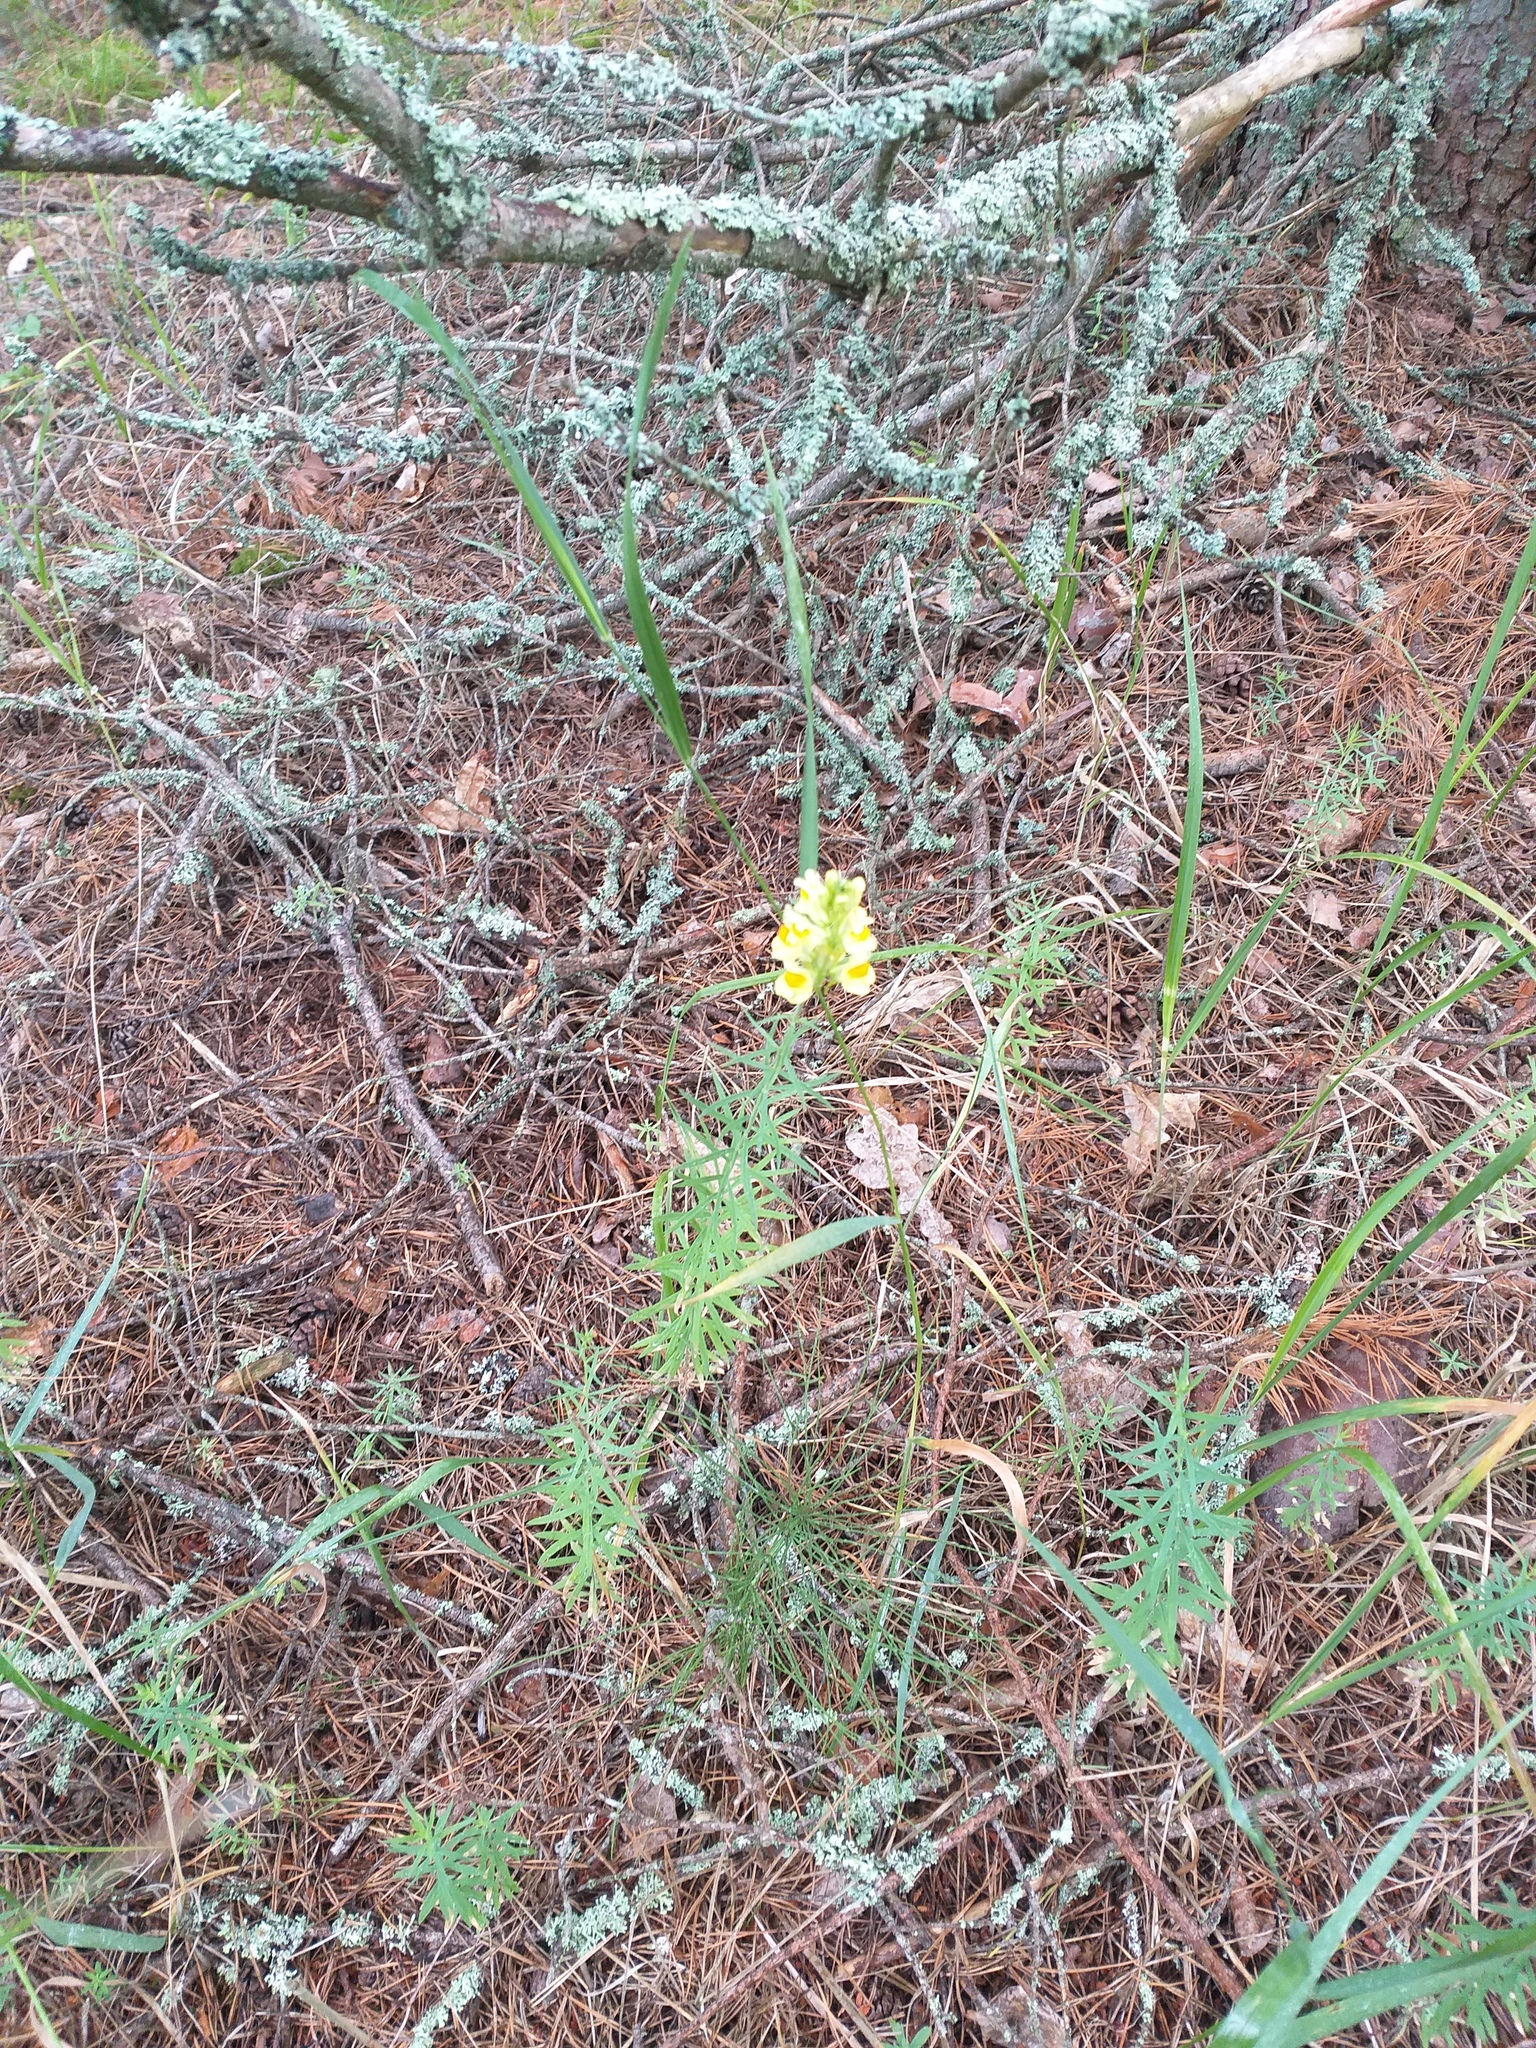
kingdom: Plantae
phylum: Tracheophyta
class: Magnoliopsida
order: Lamiales
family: Plantaginaceae
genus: Linaria
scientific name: Linaria vulgaris
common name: Butter and eggs
